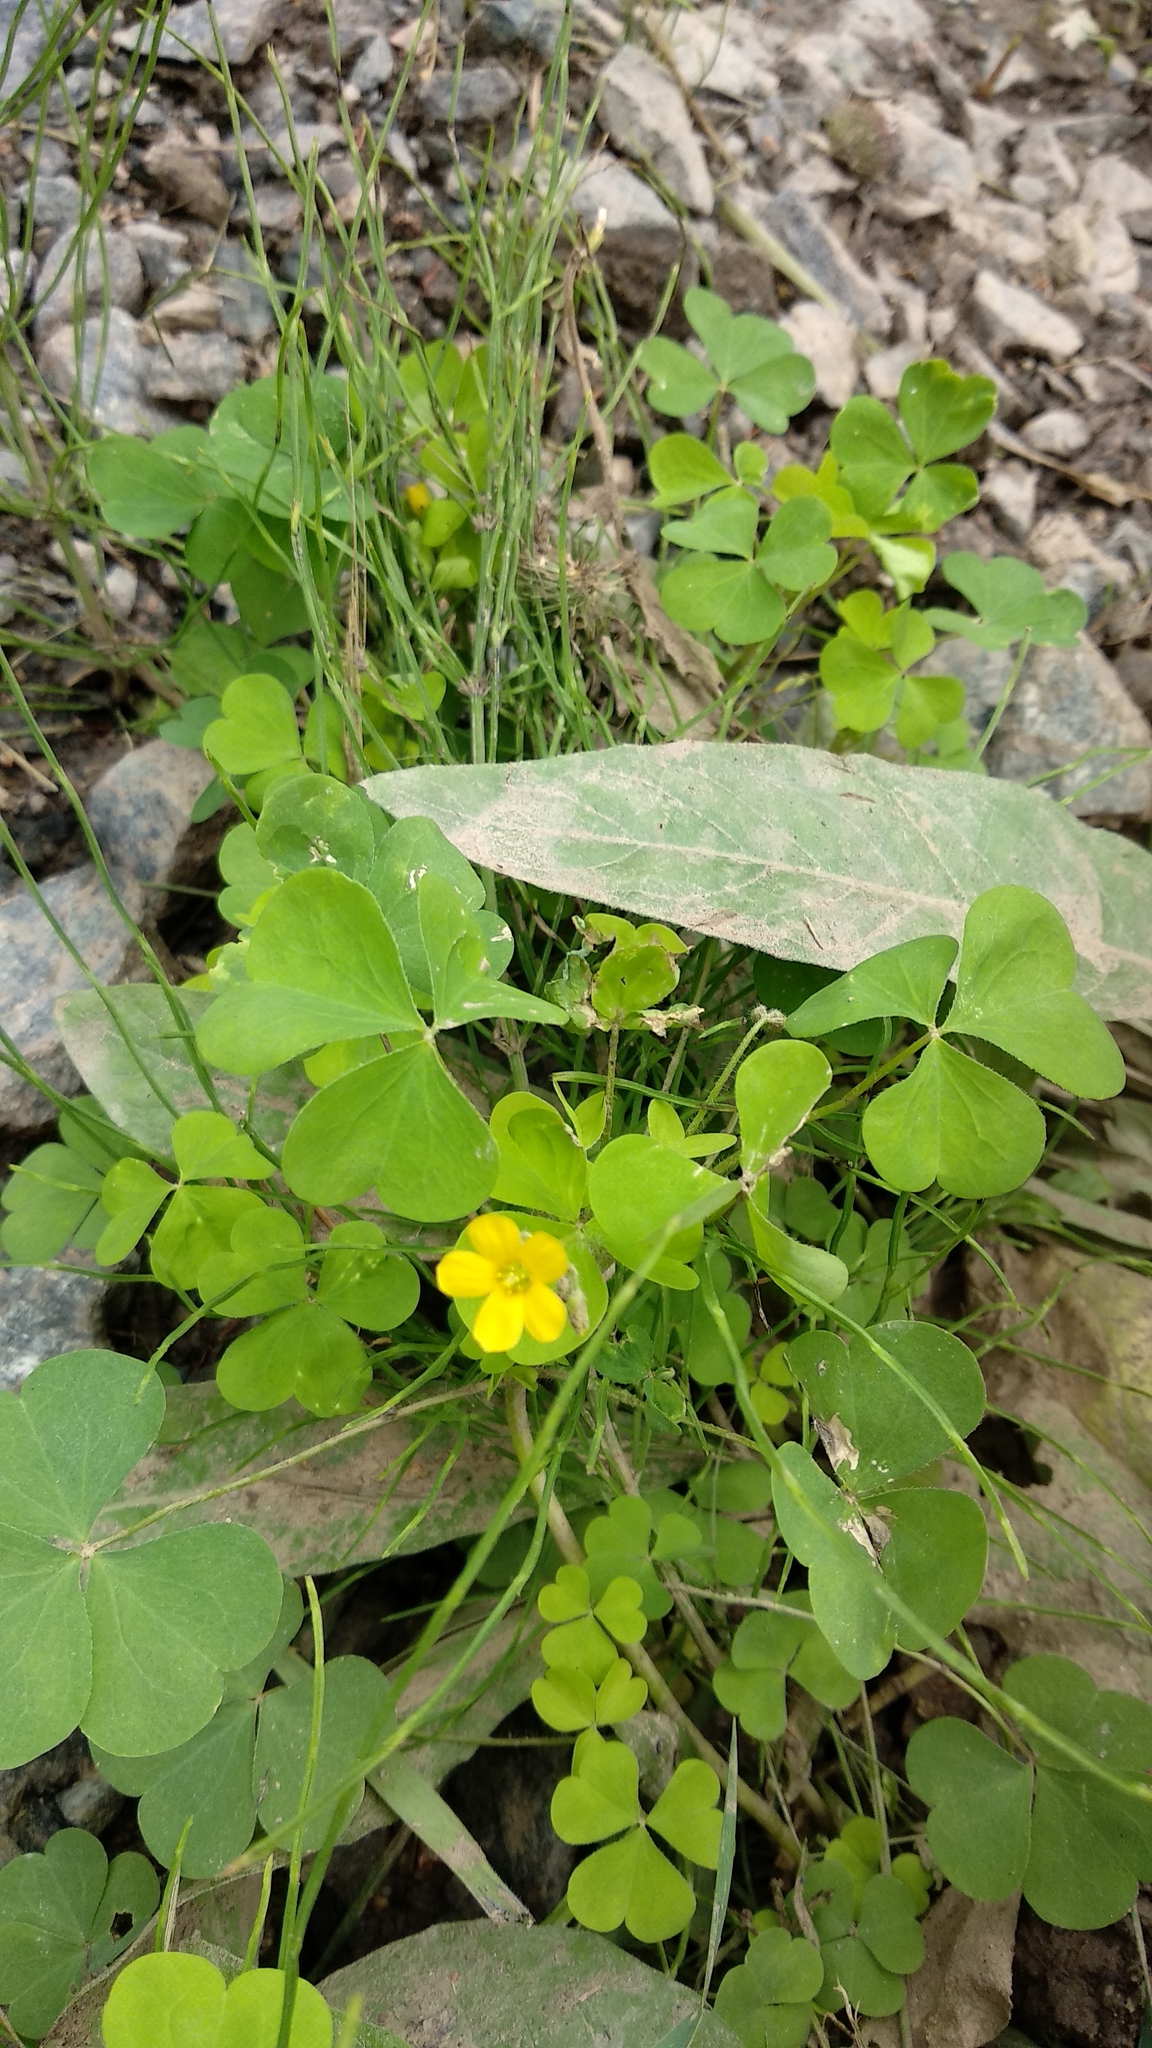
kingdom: Plantae
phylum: Tracheophyta
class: Magnoliopsida
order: Oxalidales
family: Oxalidaceae
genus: Oxalis
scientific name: Oxalis stricta
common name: Upright yellow-sorrel
